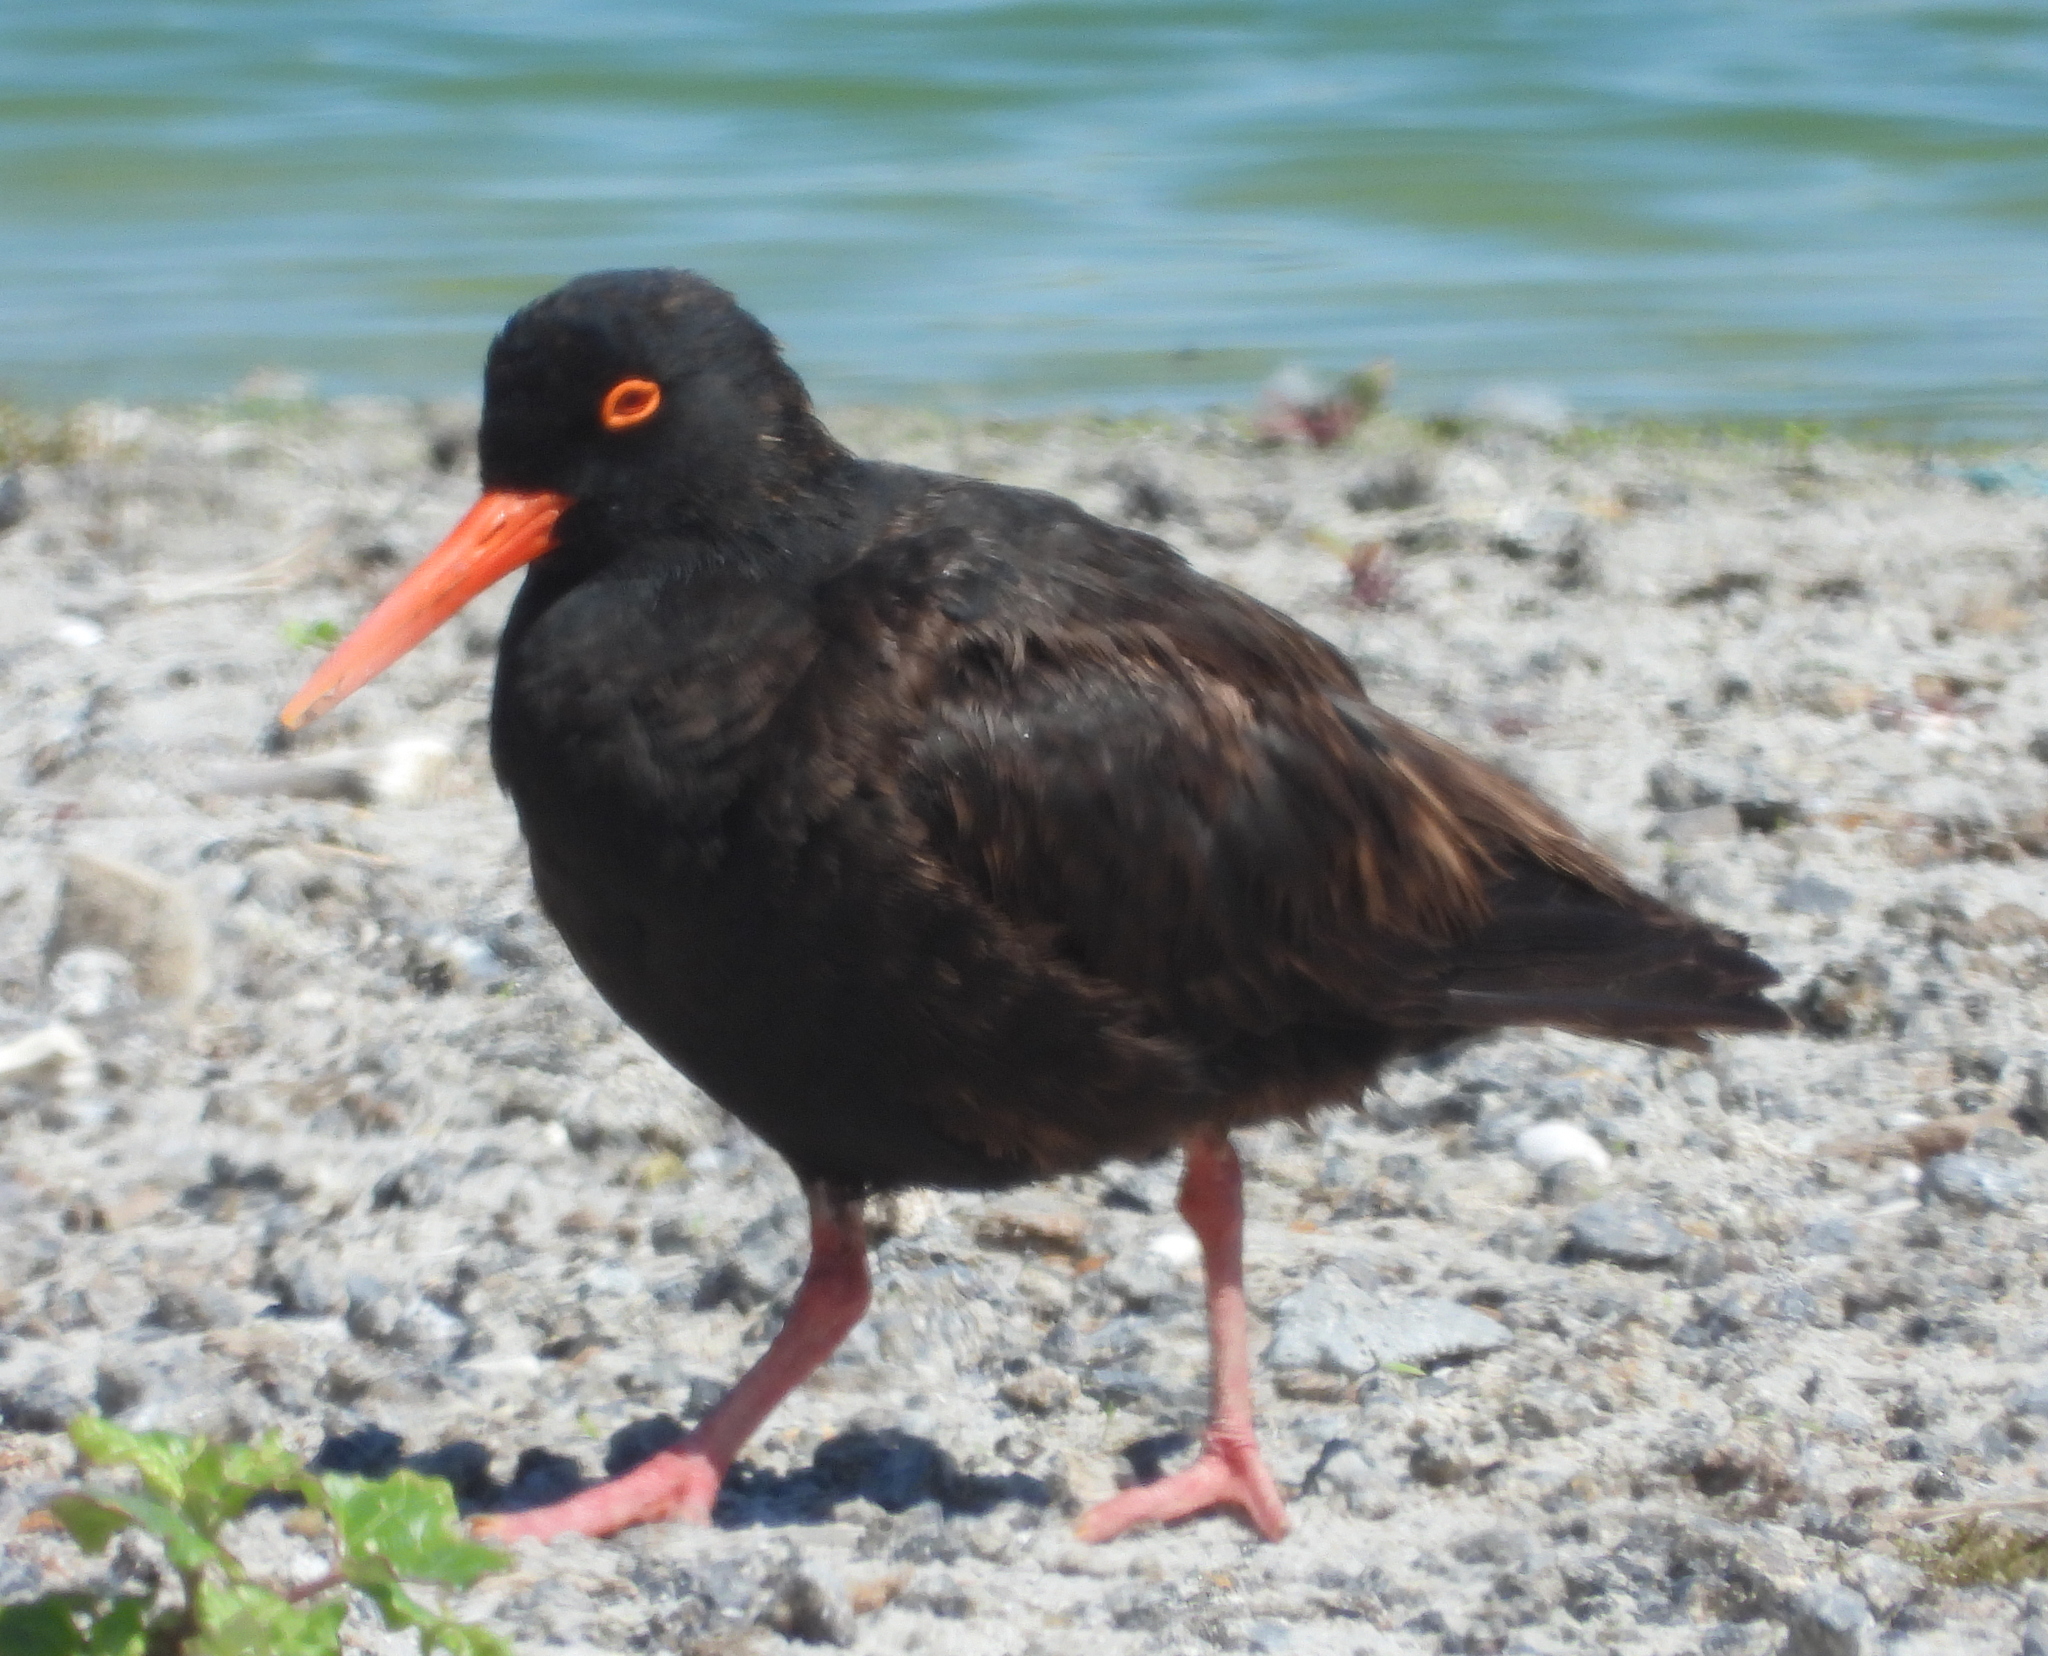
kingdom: Animalia
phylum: Chordata
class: Aves
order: Charadriiformes
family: Haematopodidae
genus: Haematopus
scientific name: Haematopus moquini
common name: African oystercatcher
